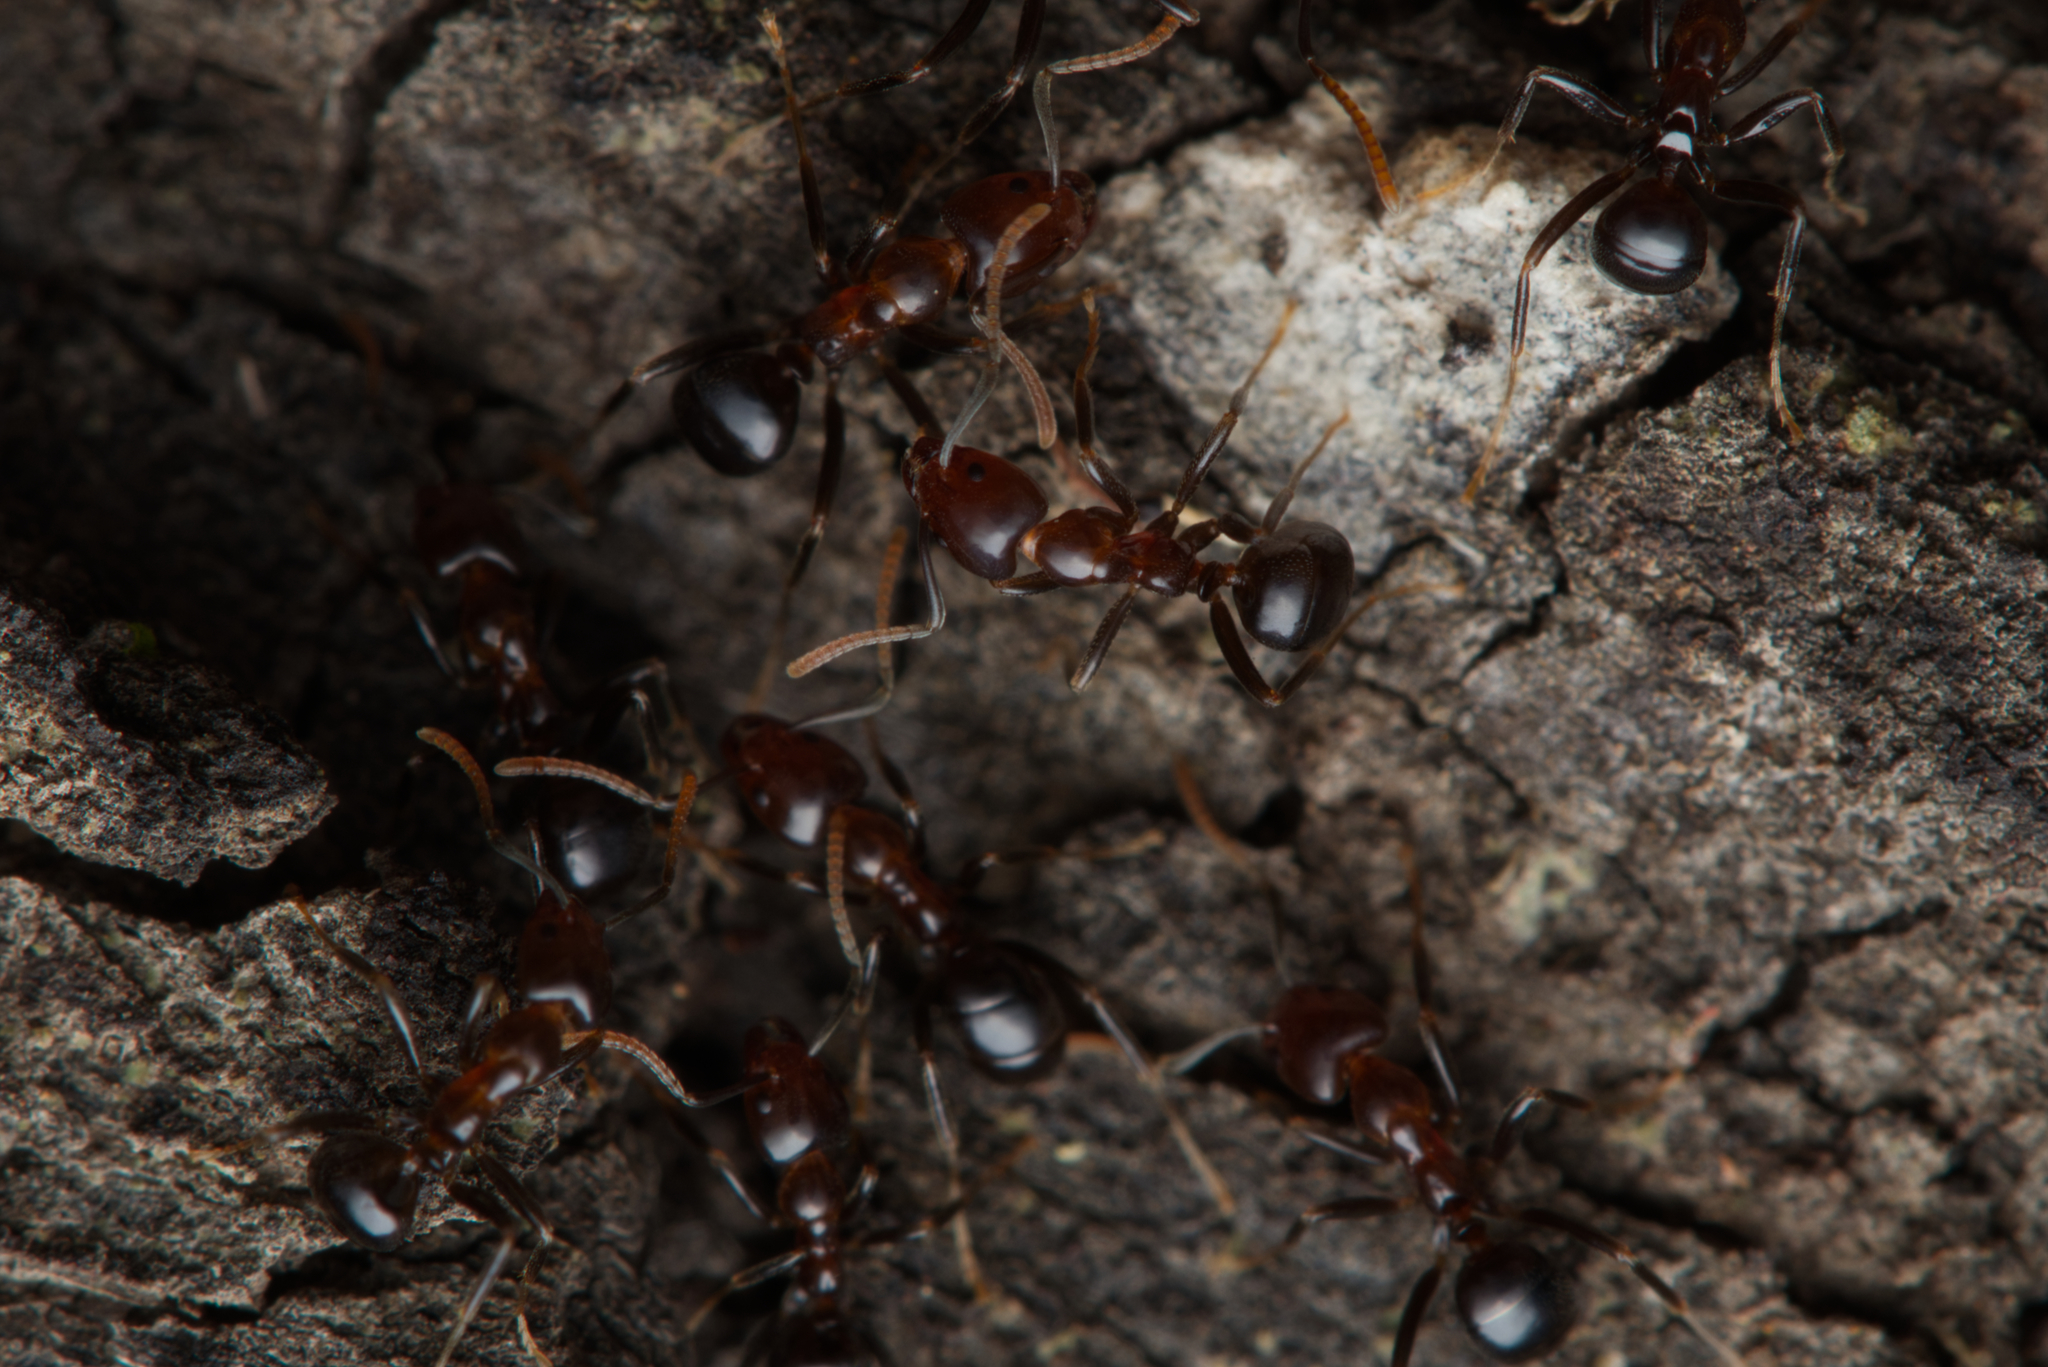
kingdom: Animalia
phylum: Arthropoda
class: Insecta
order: Hymenoptera
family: Formicidae
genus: Papyrius
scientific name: Papyrius nitidus
